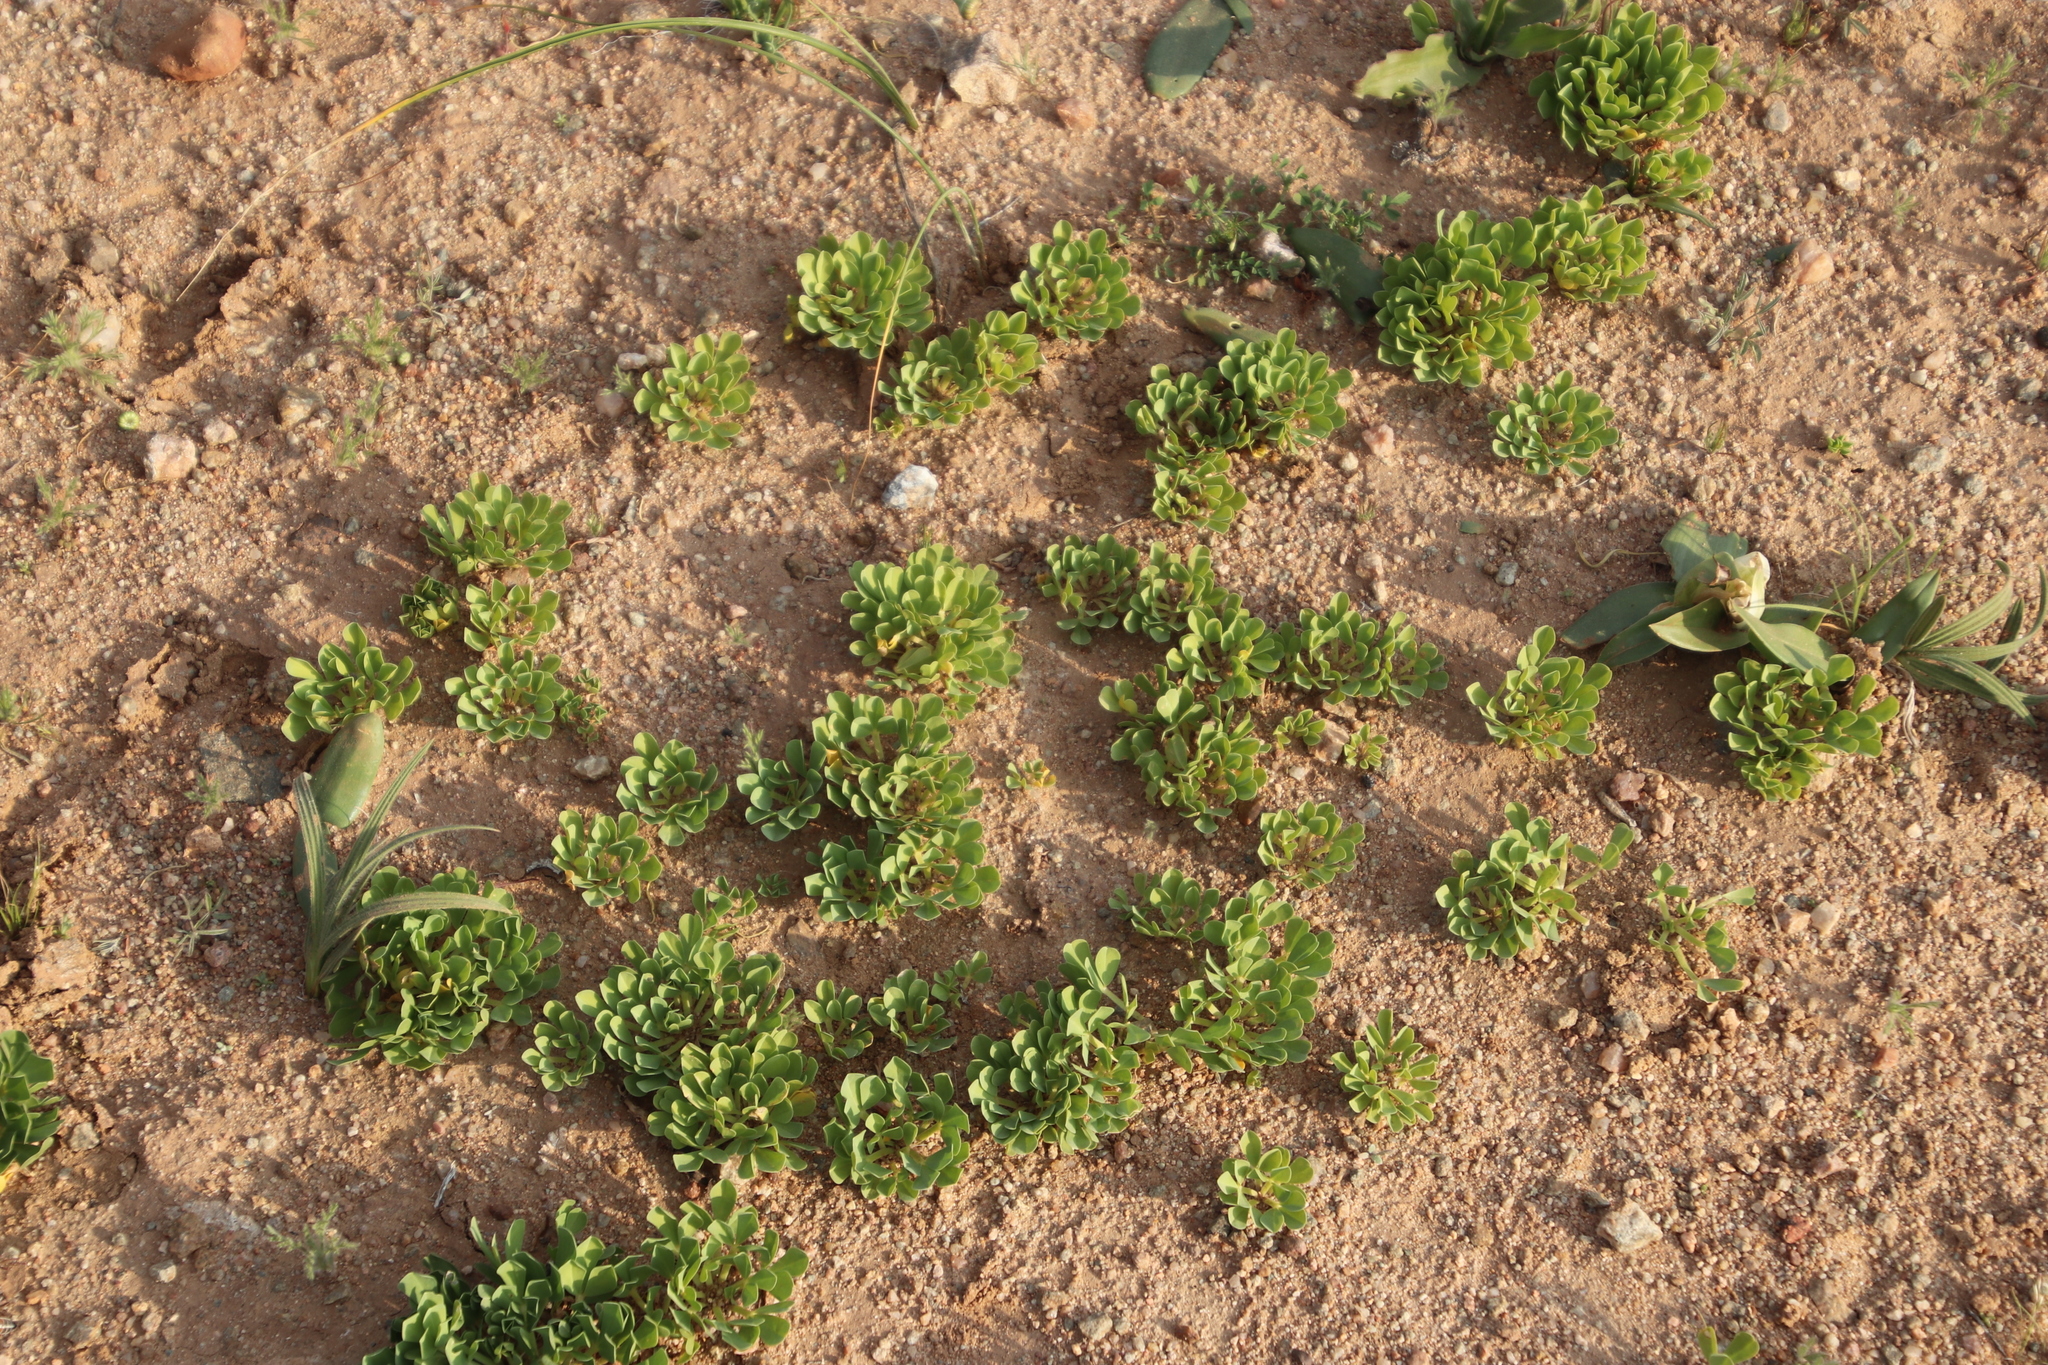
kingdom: Plantae
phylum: Tracheophyta
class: Magnoliopsida
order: Oxalidales
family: Oxalidaceae
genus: Oxalis
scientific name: Oxalis louisae
